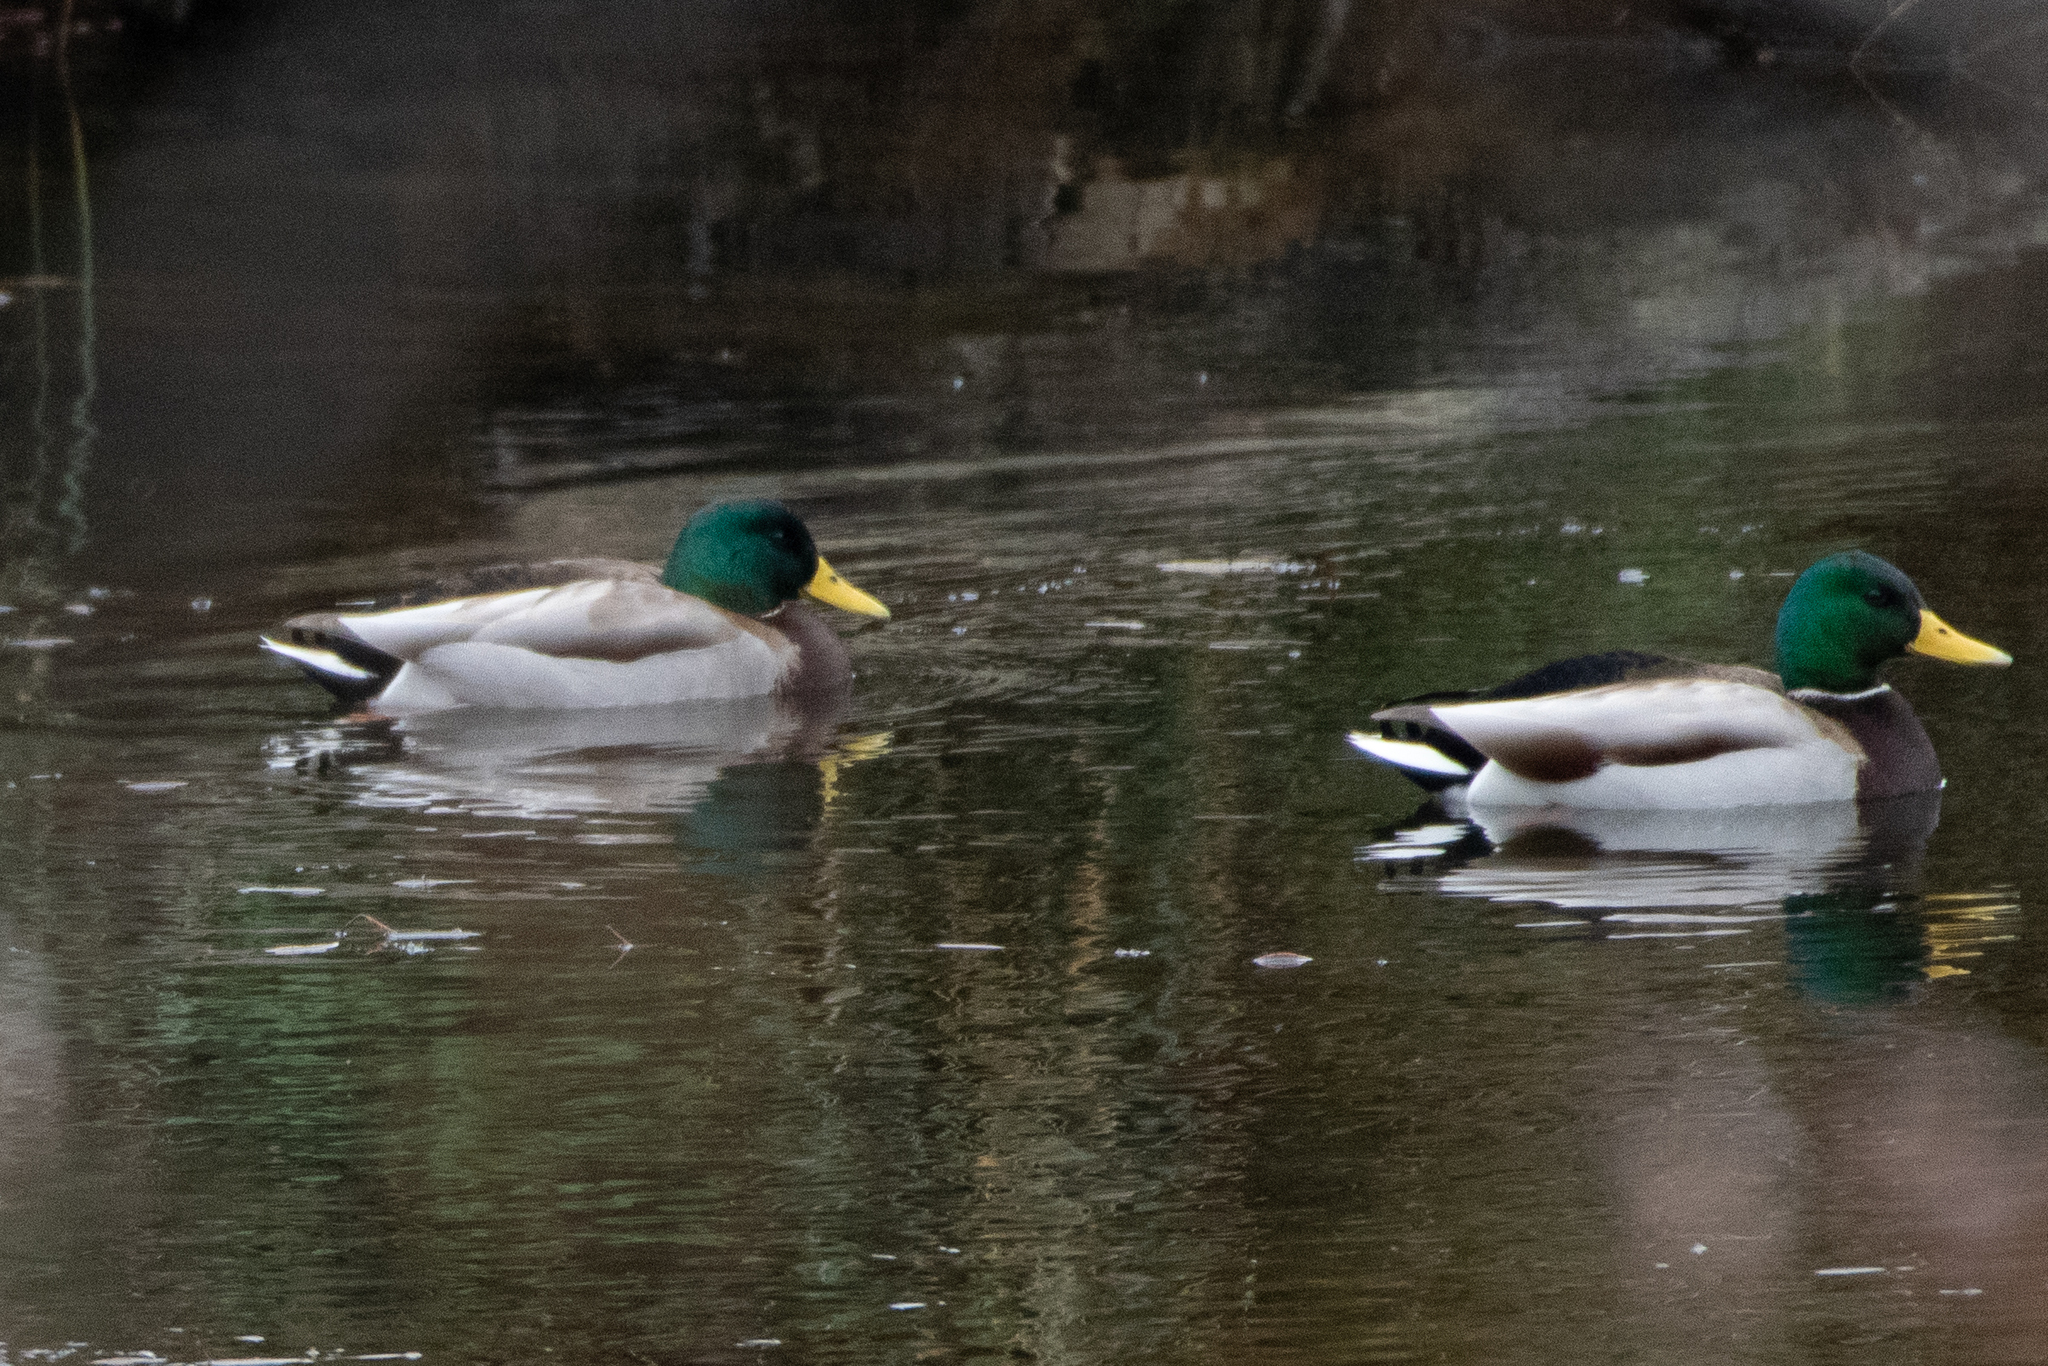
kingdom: Animalia
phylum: Chordata
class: Aves
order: Anseriformes
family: Anatidae
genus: Anas
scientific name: Anas platyrhynchos
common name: Mallard
